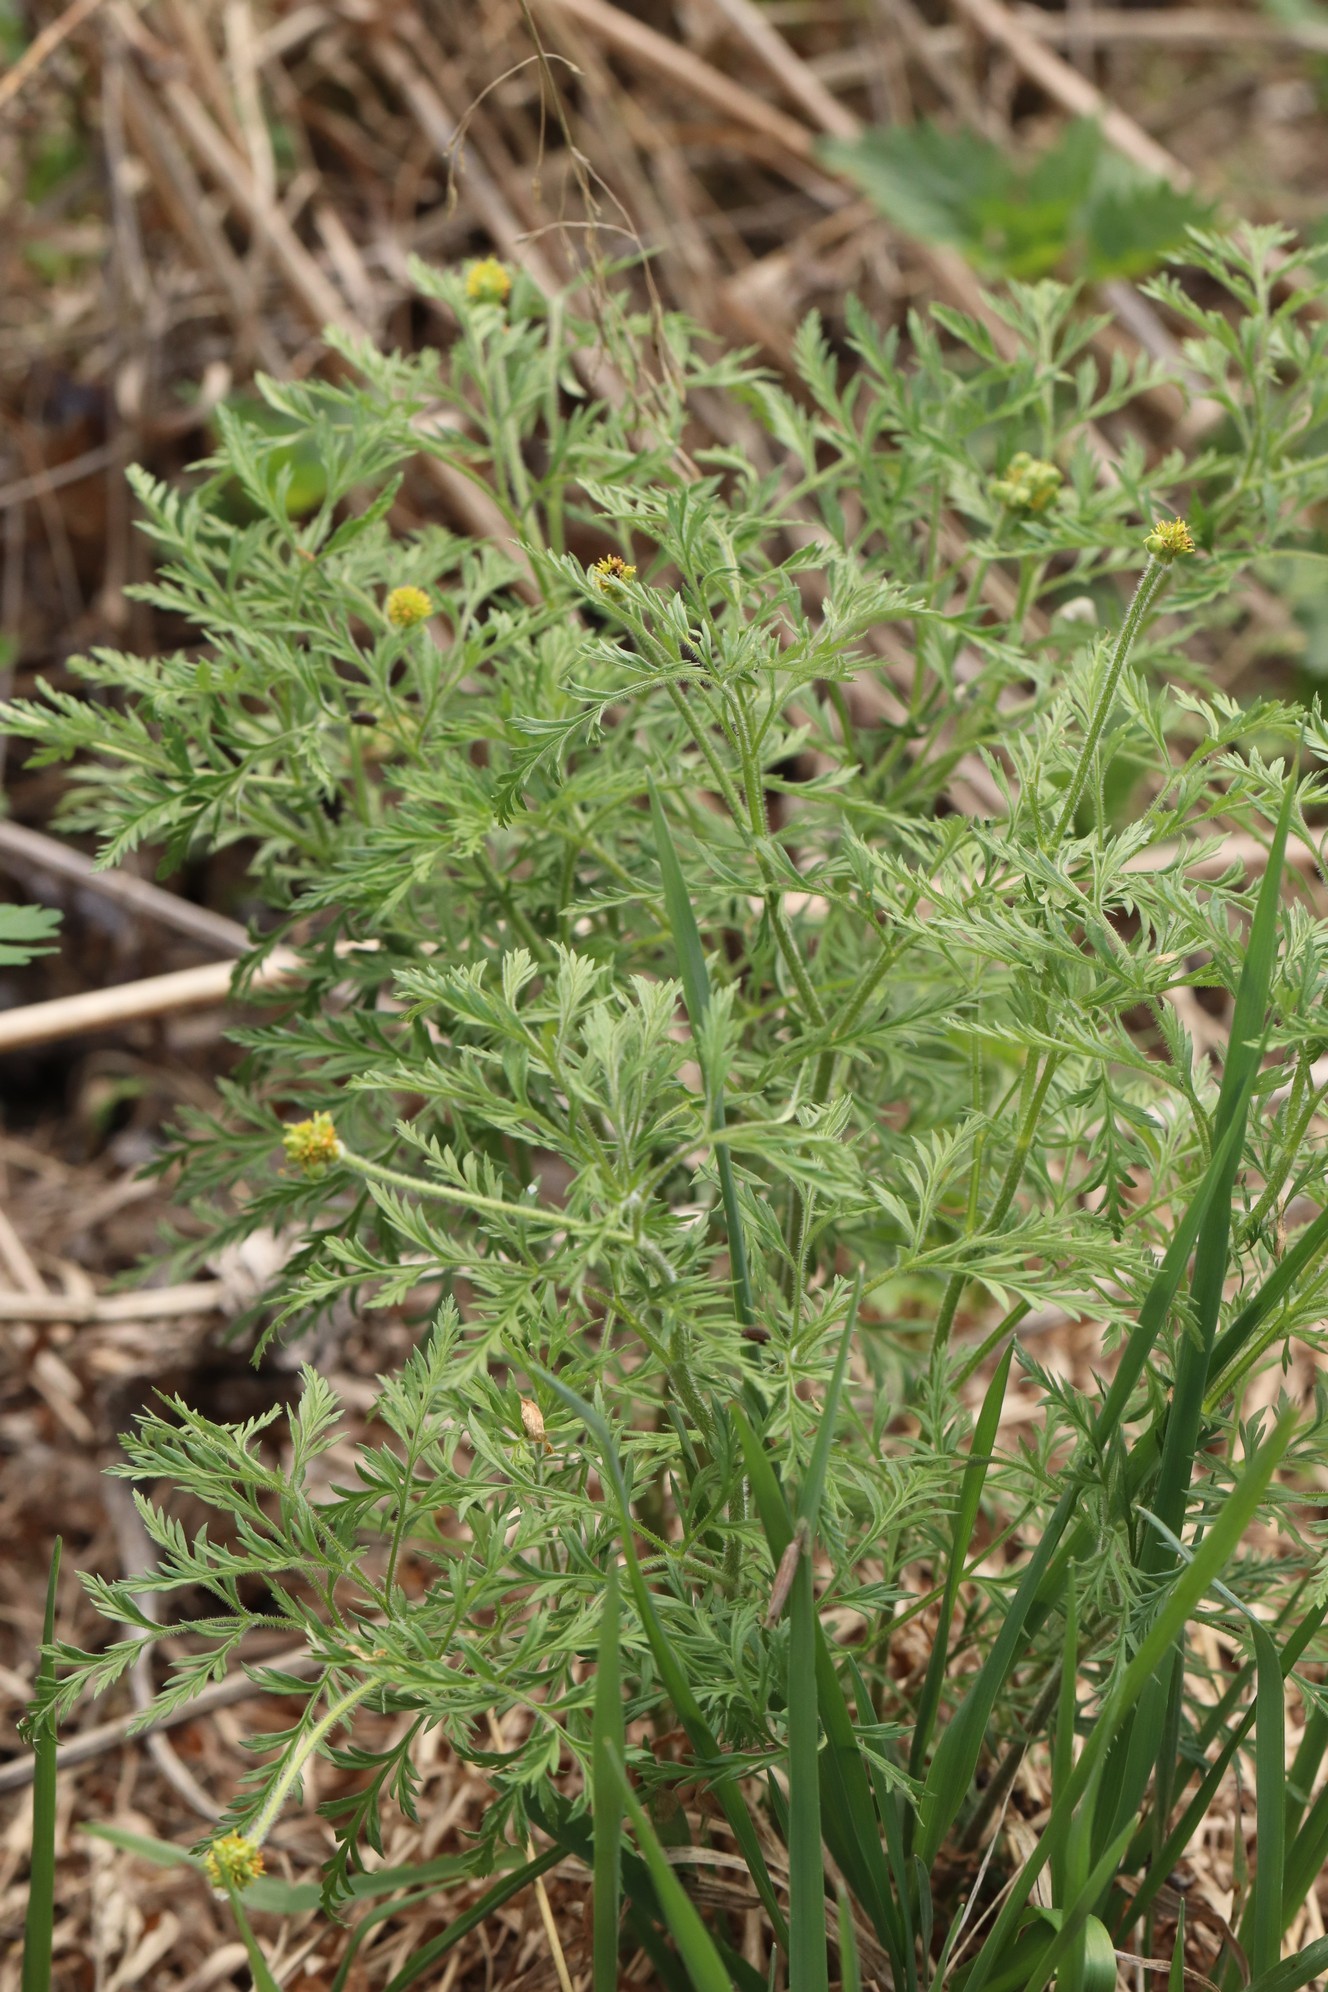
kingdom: Plantae
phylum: Tracheophyta
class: Magnoliopsida
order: Ranunculales
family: Ranunculaceae
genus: Adonis
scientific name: Adonis villosa
